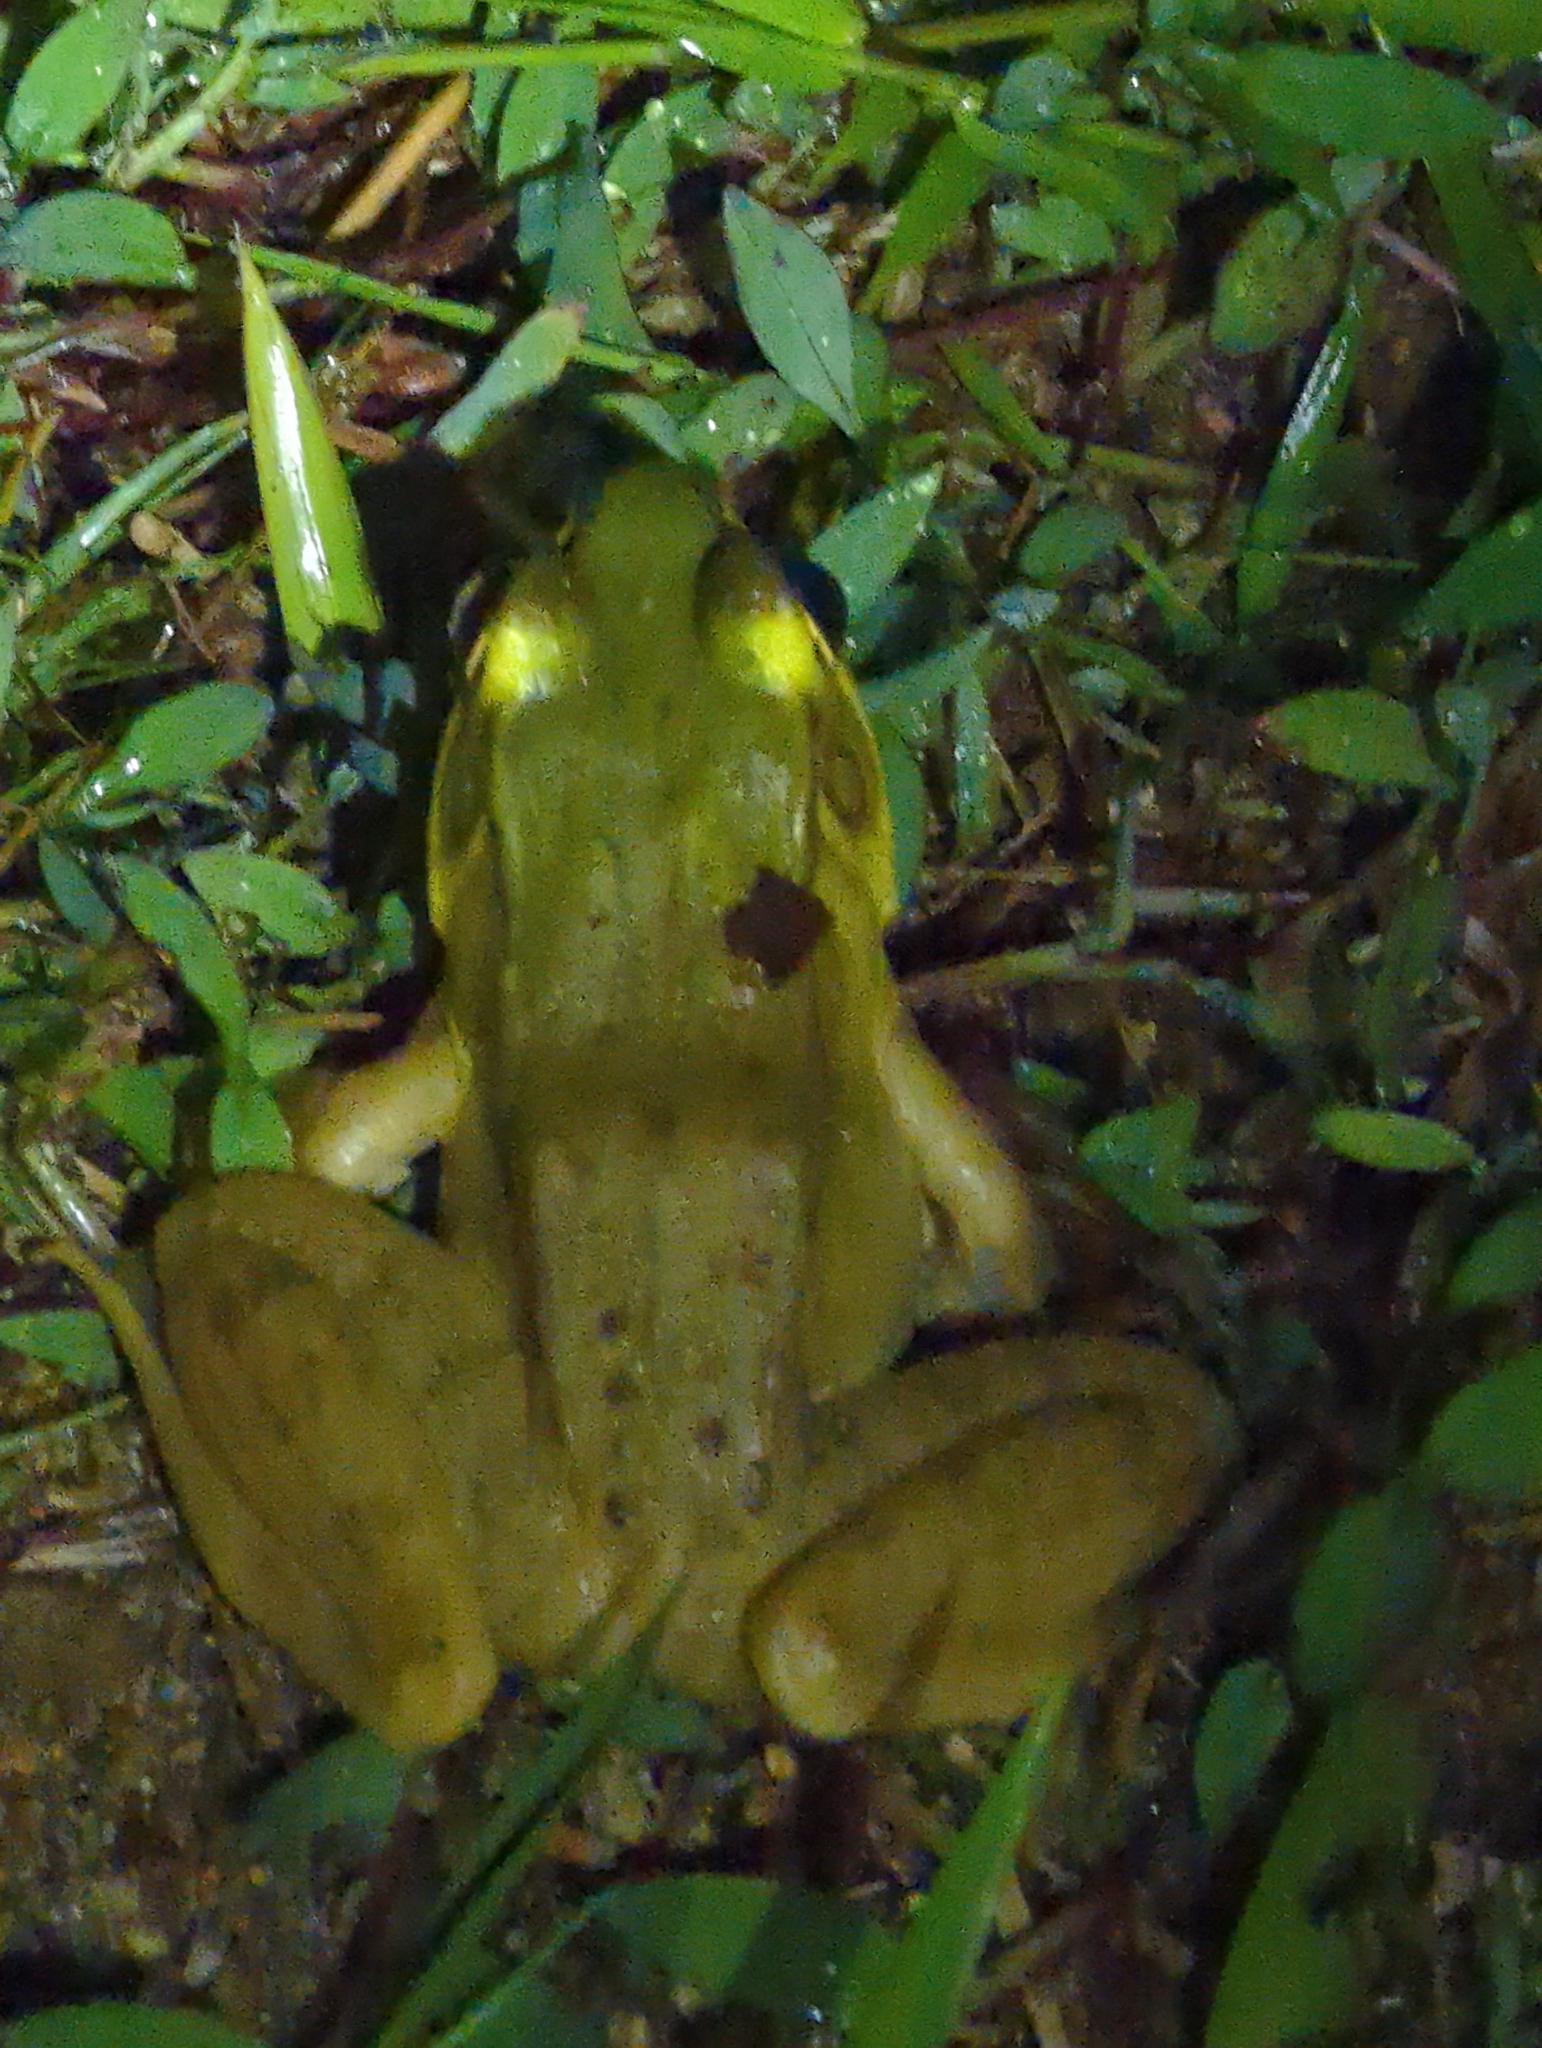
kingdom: Animalia
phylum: Chordata
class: Amphibia
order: Anura
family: Ranidae
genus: Lithobates
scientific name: Lithobates vaillanti
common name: Vaillant's frog
